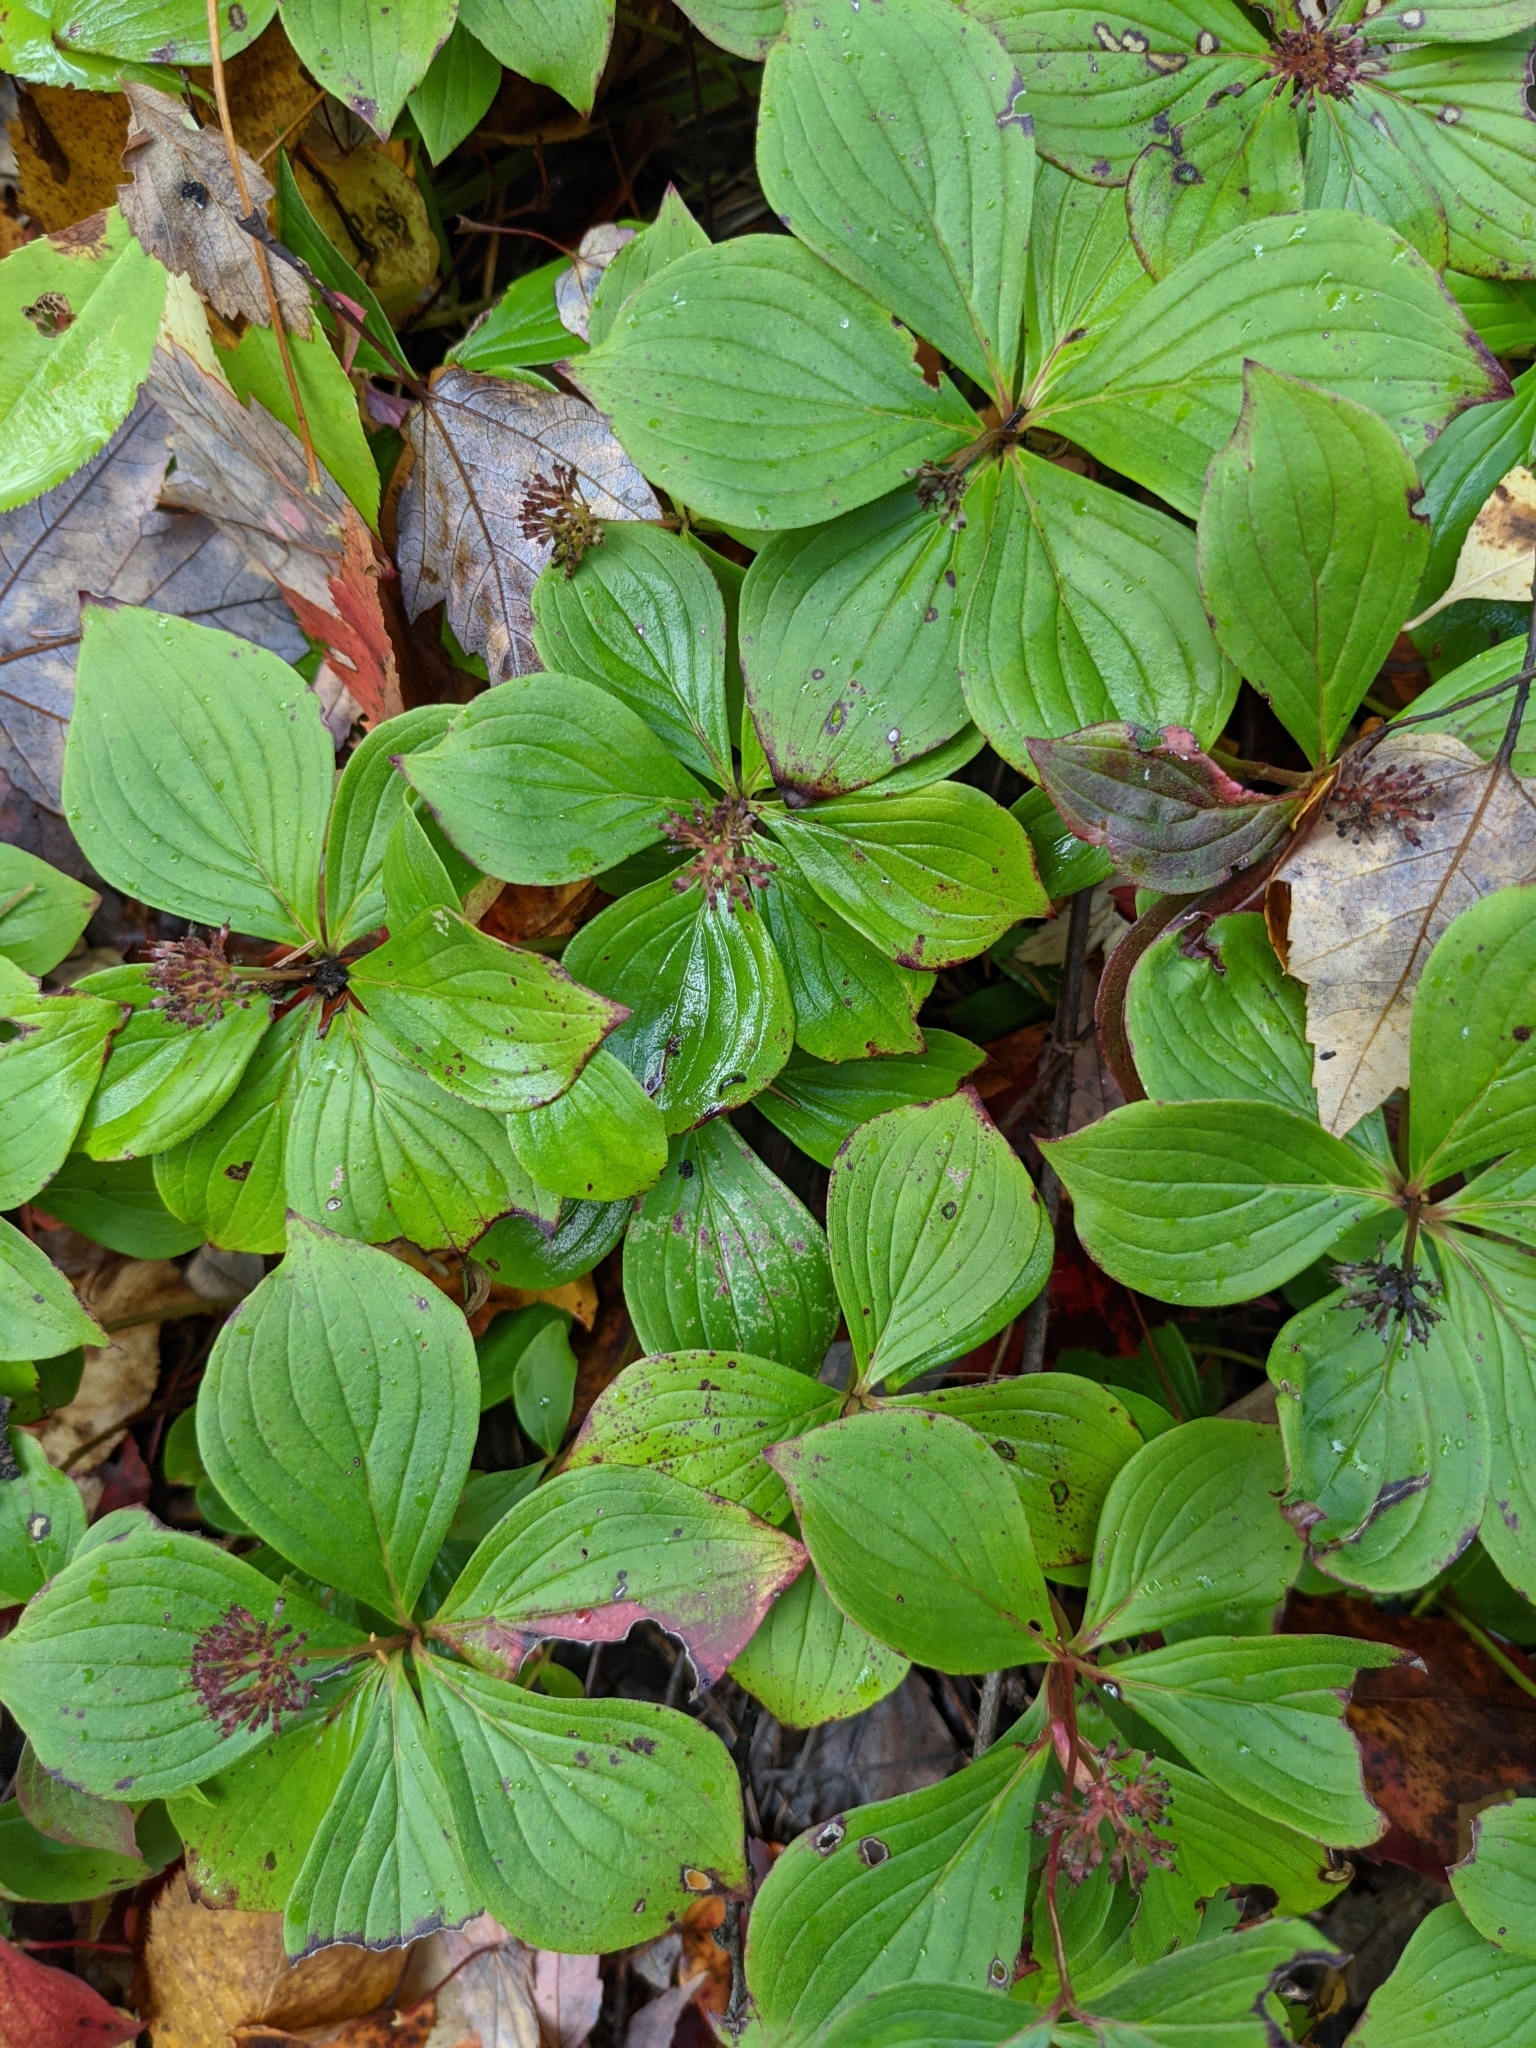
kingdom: Plantae
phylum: Tracheophyta
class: Magnoliopsida
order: Cornales
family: Cornaceae
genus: Cornus
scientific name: Cornus canadensis
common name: Creeping dogwood
